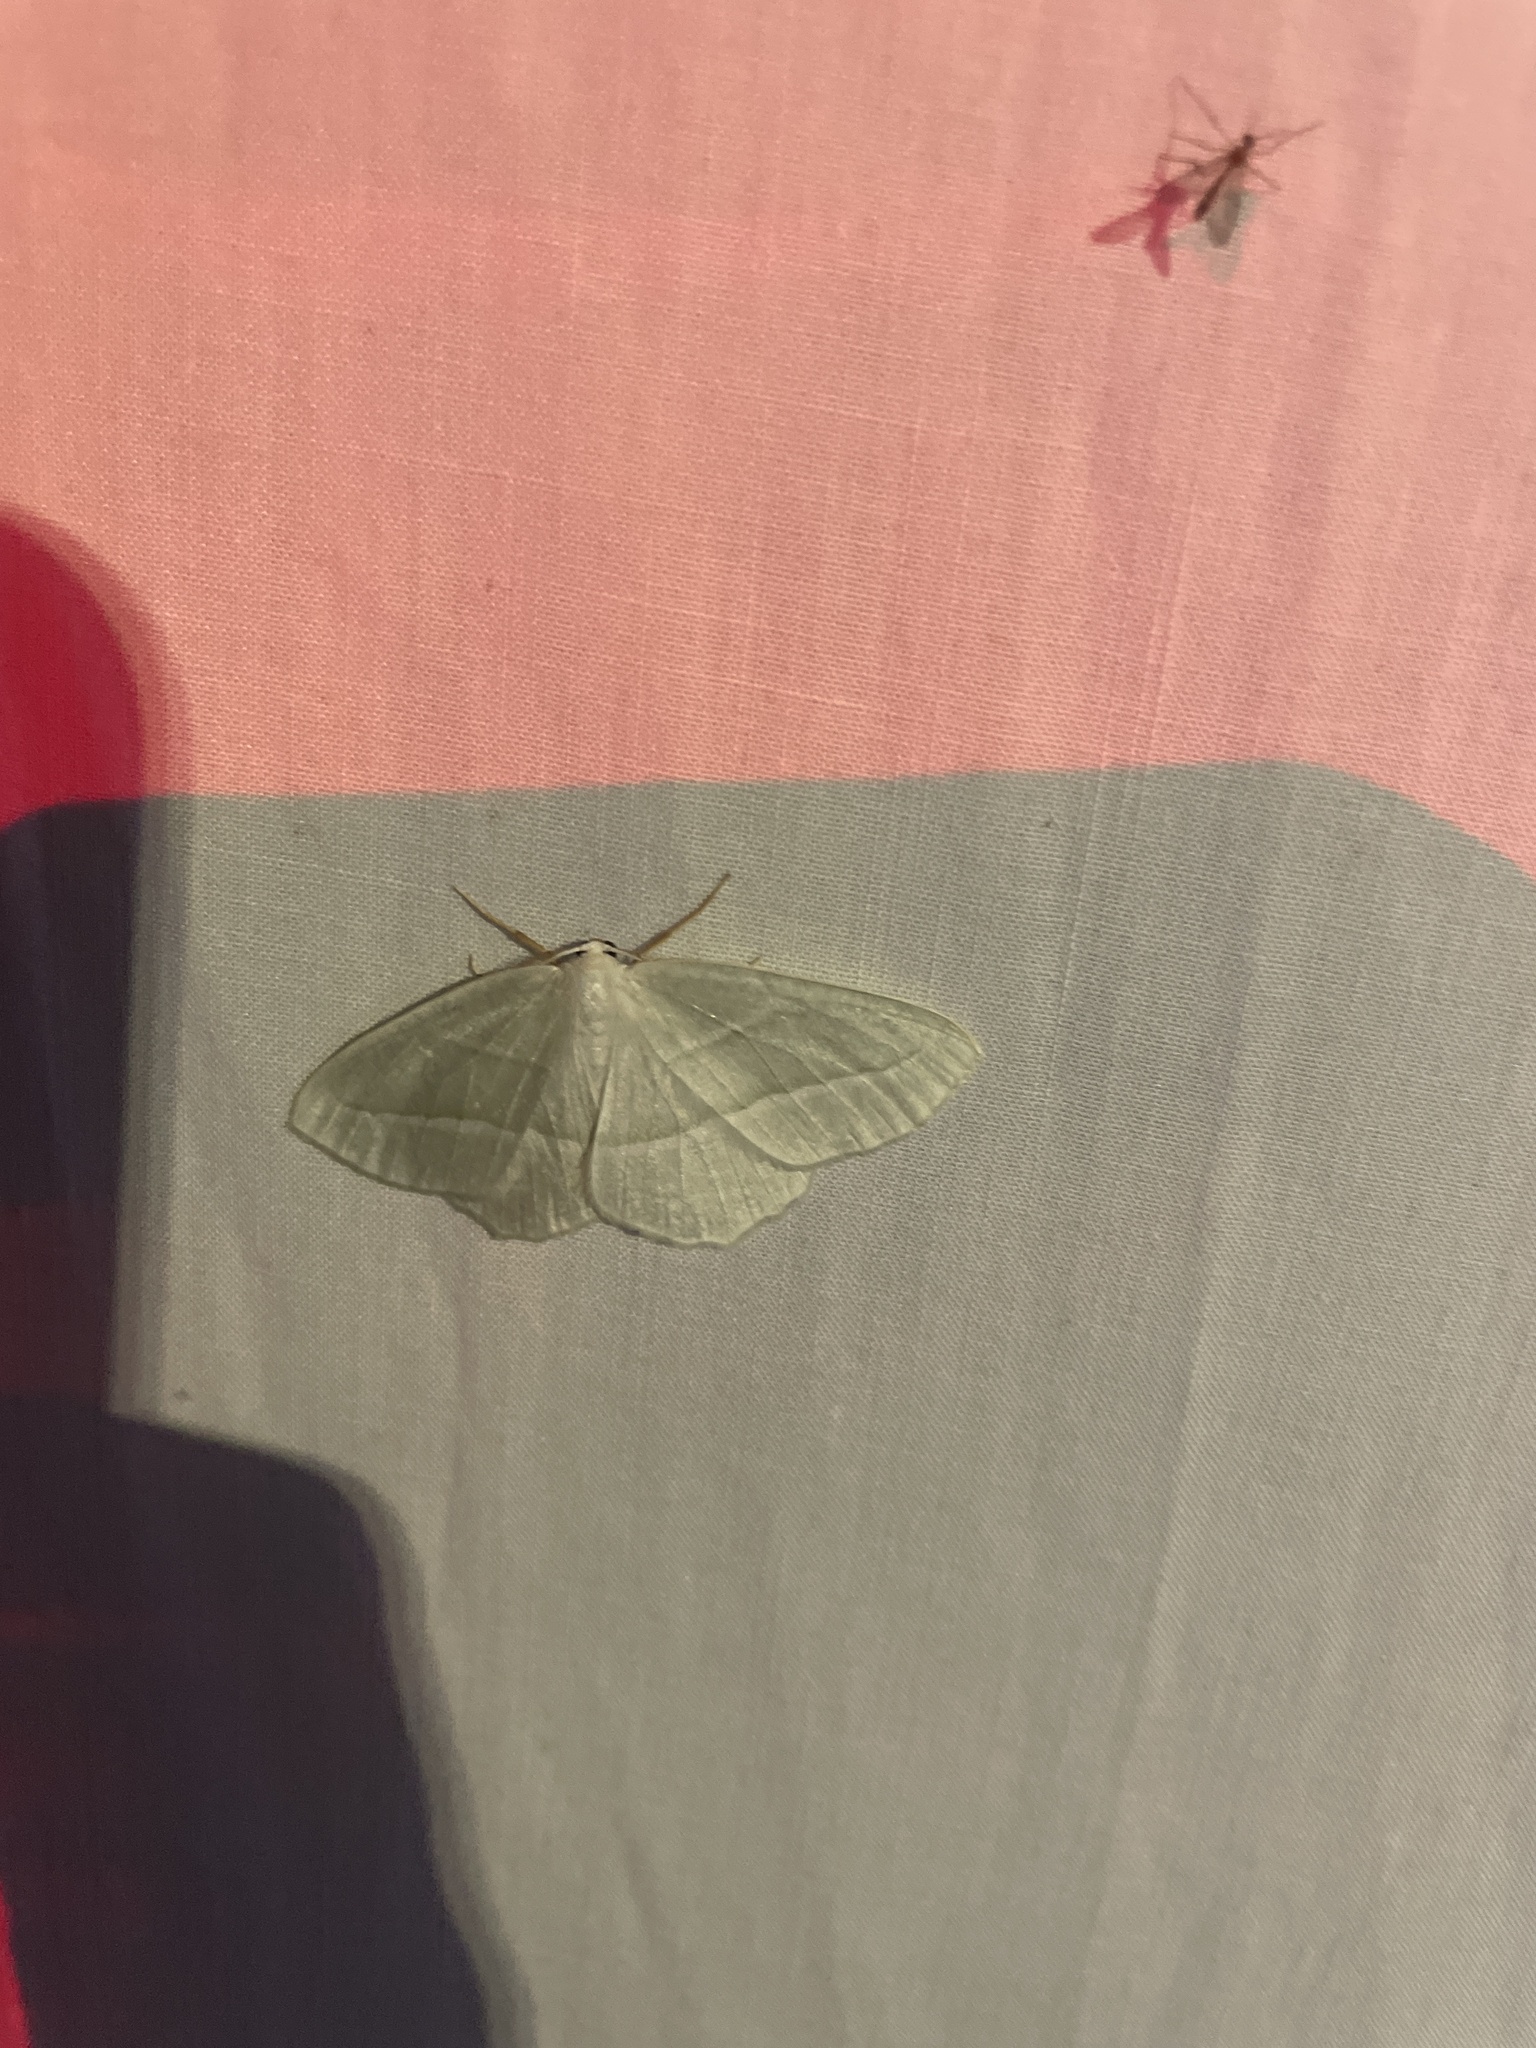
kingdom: Animalia
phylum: Arthropoda
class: Insecta
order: Lepidoptera
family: Geometridae
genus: Campaea
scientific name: Campaea perlata
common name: Fringed looper
